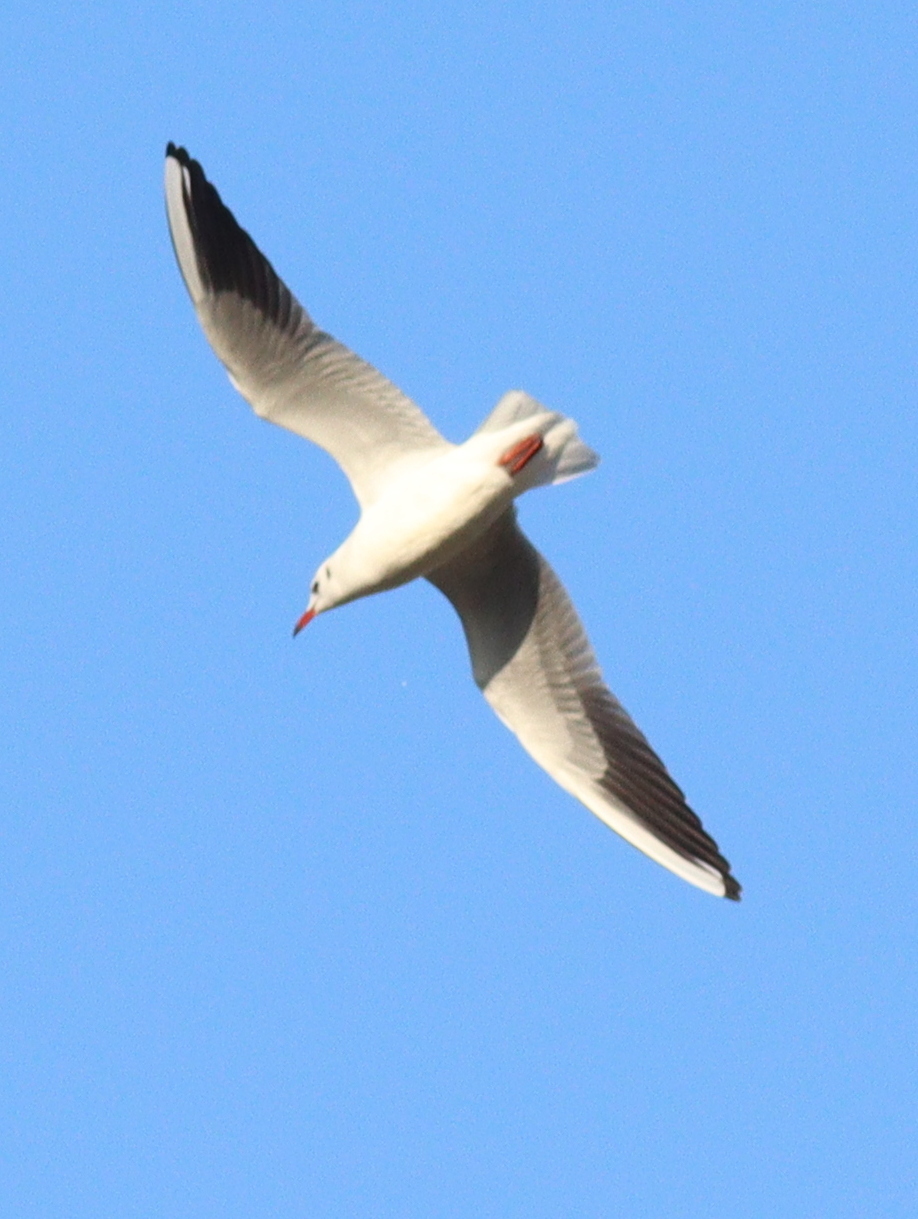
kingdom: Animalia
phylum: Chordata
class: Aves
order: Charadriiformes
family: Laridae
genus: Chroicocephalus
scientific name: Chroicocephalus ridibundus
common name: Black-headed gull
